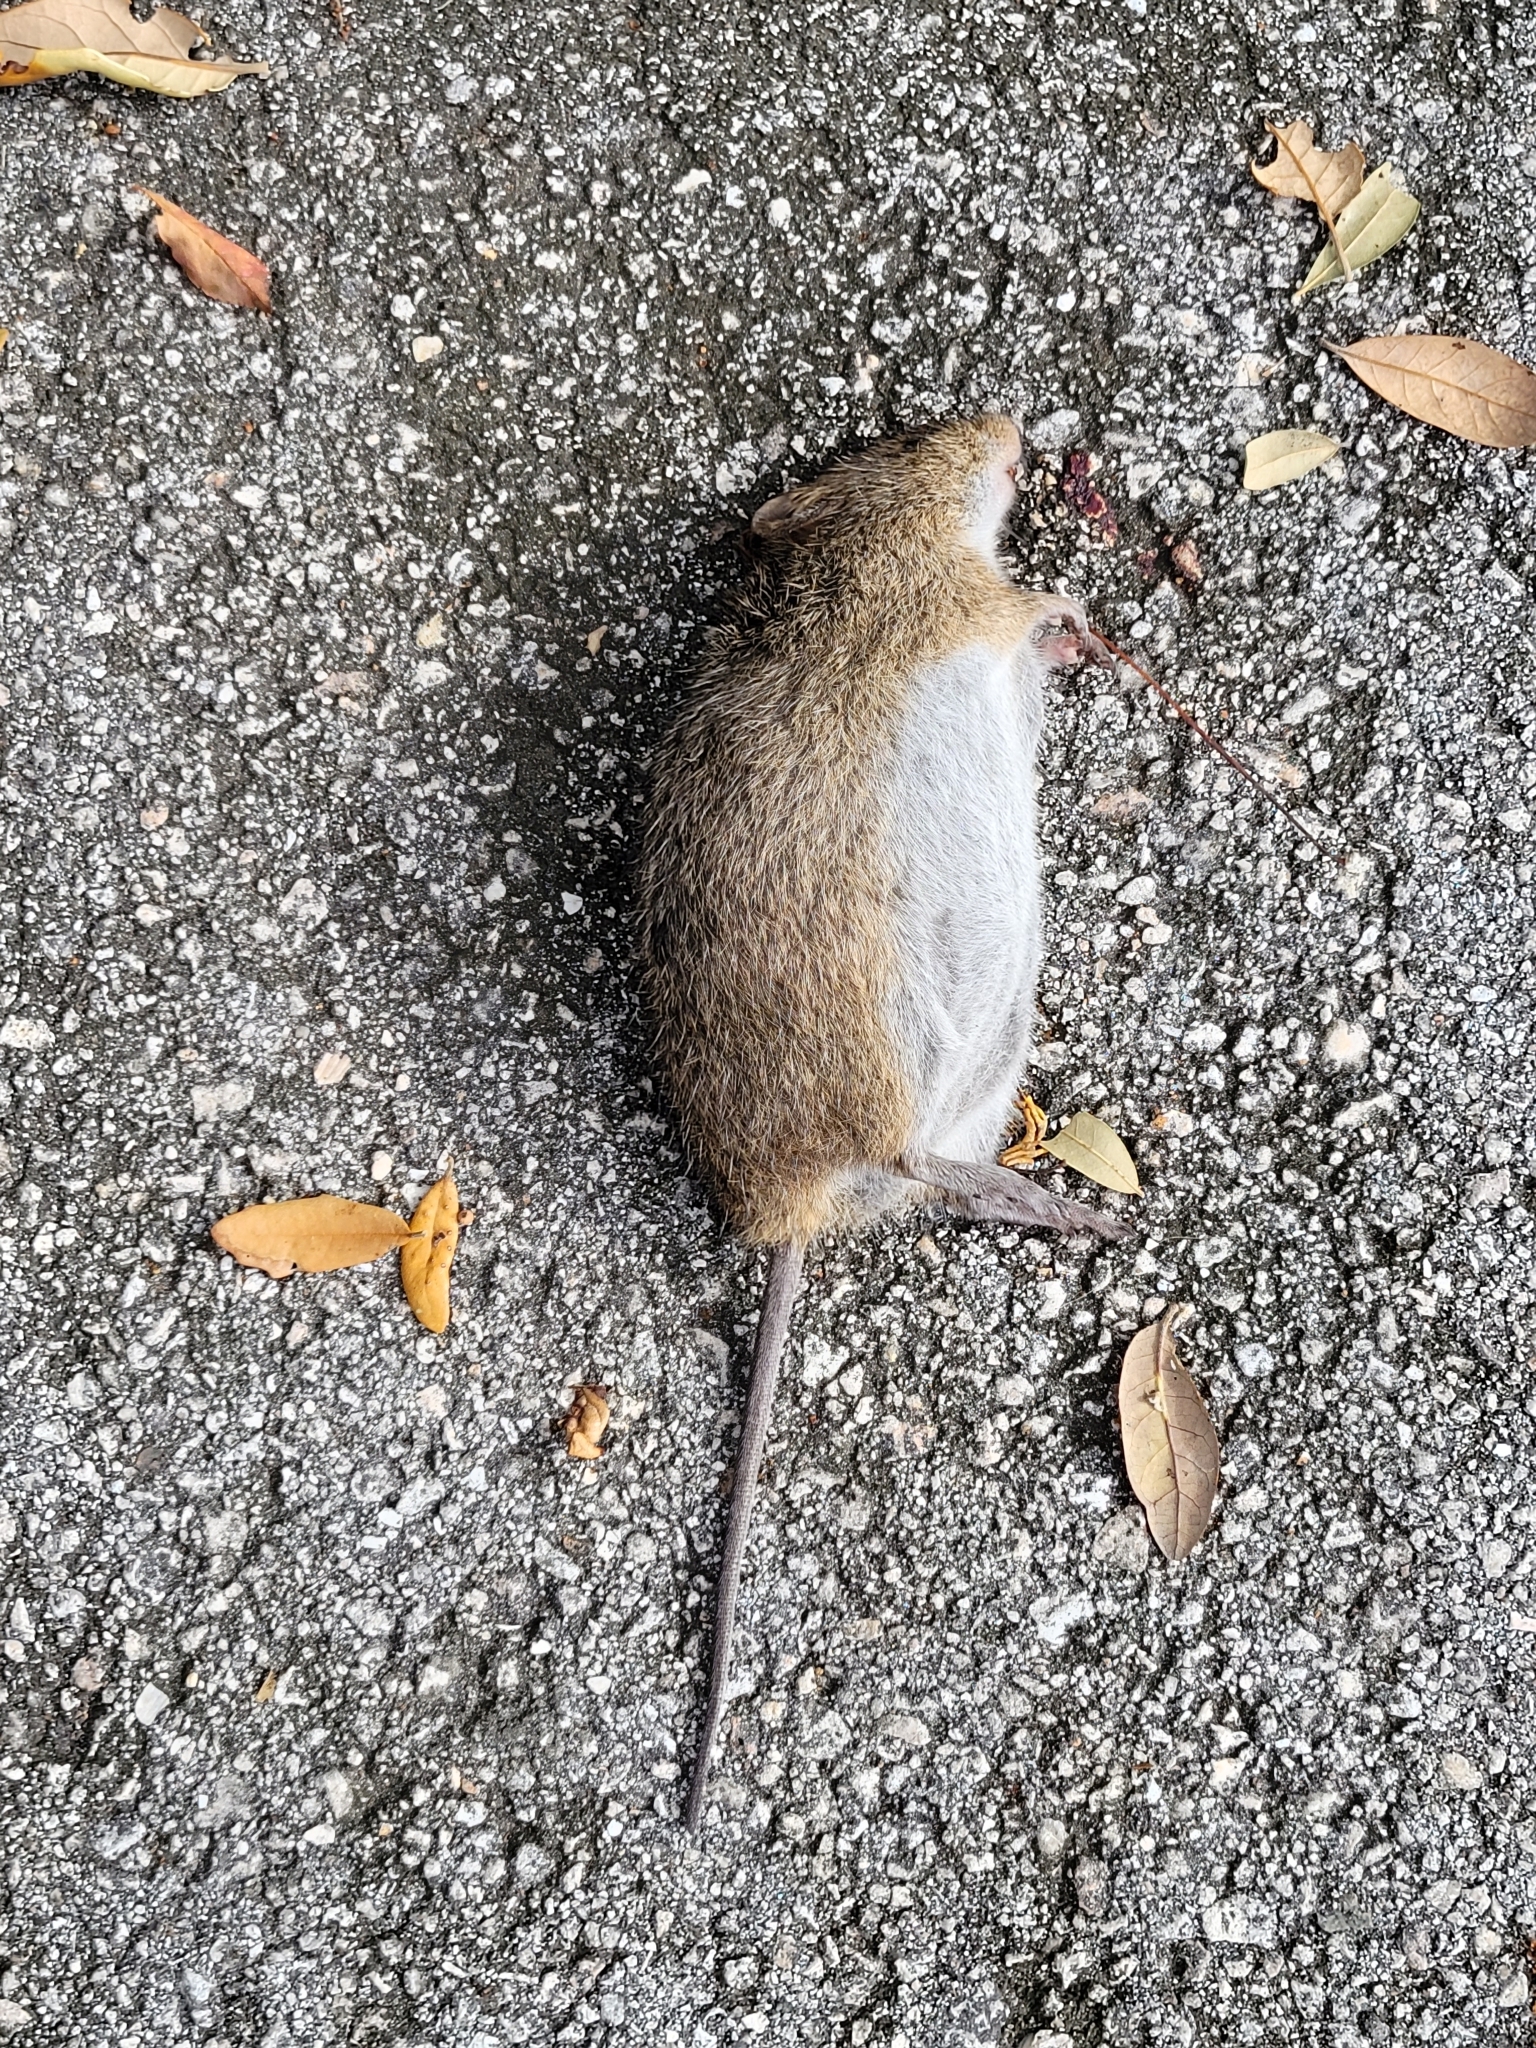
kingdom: Animalia
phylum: Chordata
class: Mammalia
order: Rodentia
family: Cricetidae
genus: Sigmodon
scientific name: Sigmodon hispidus
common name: Hispid cotton rat
